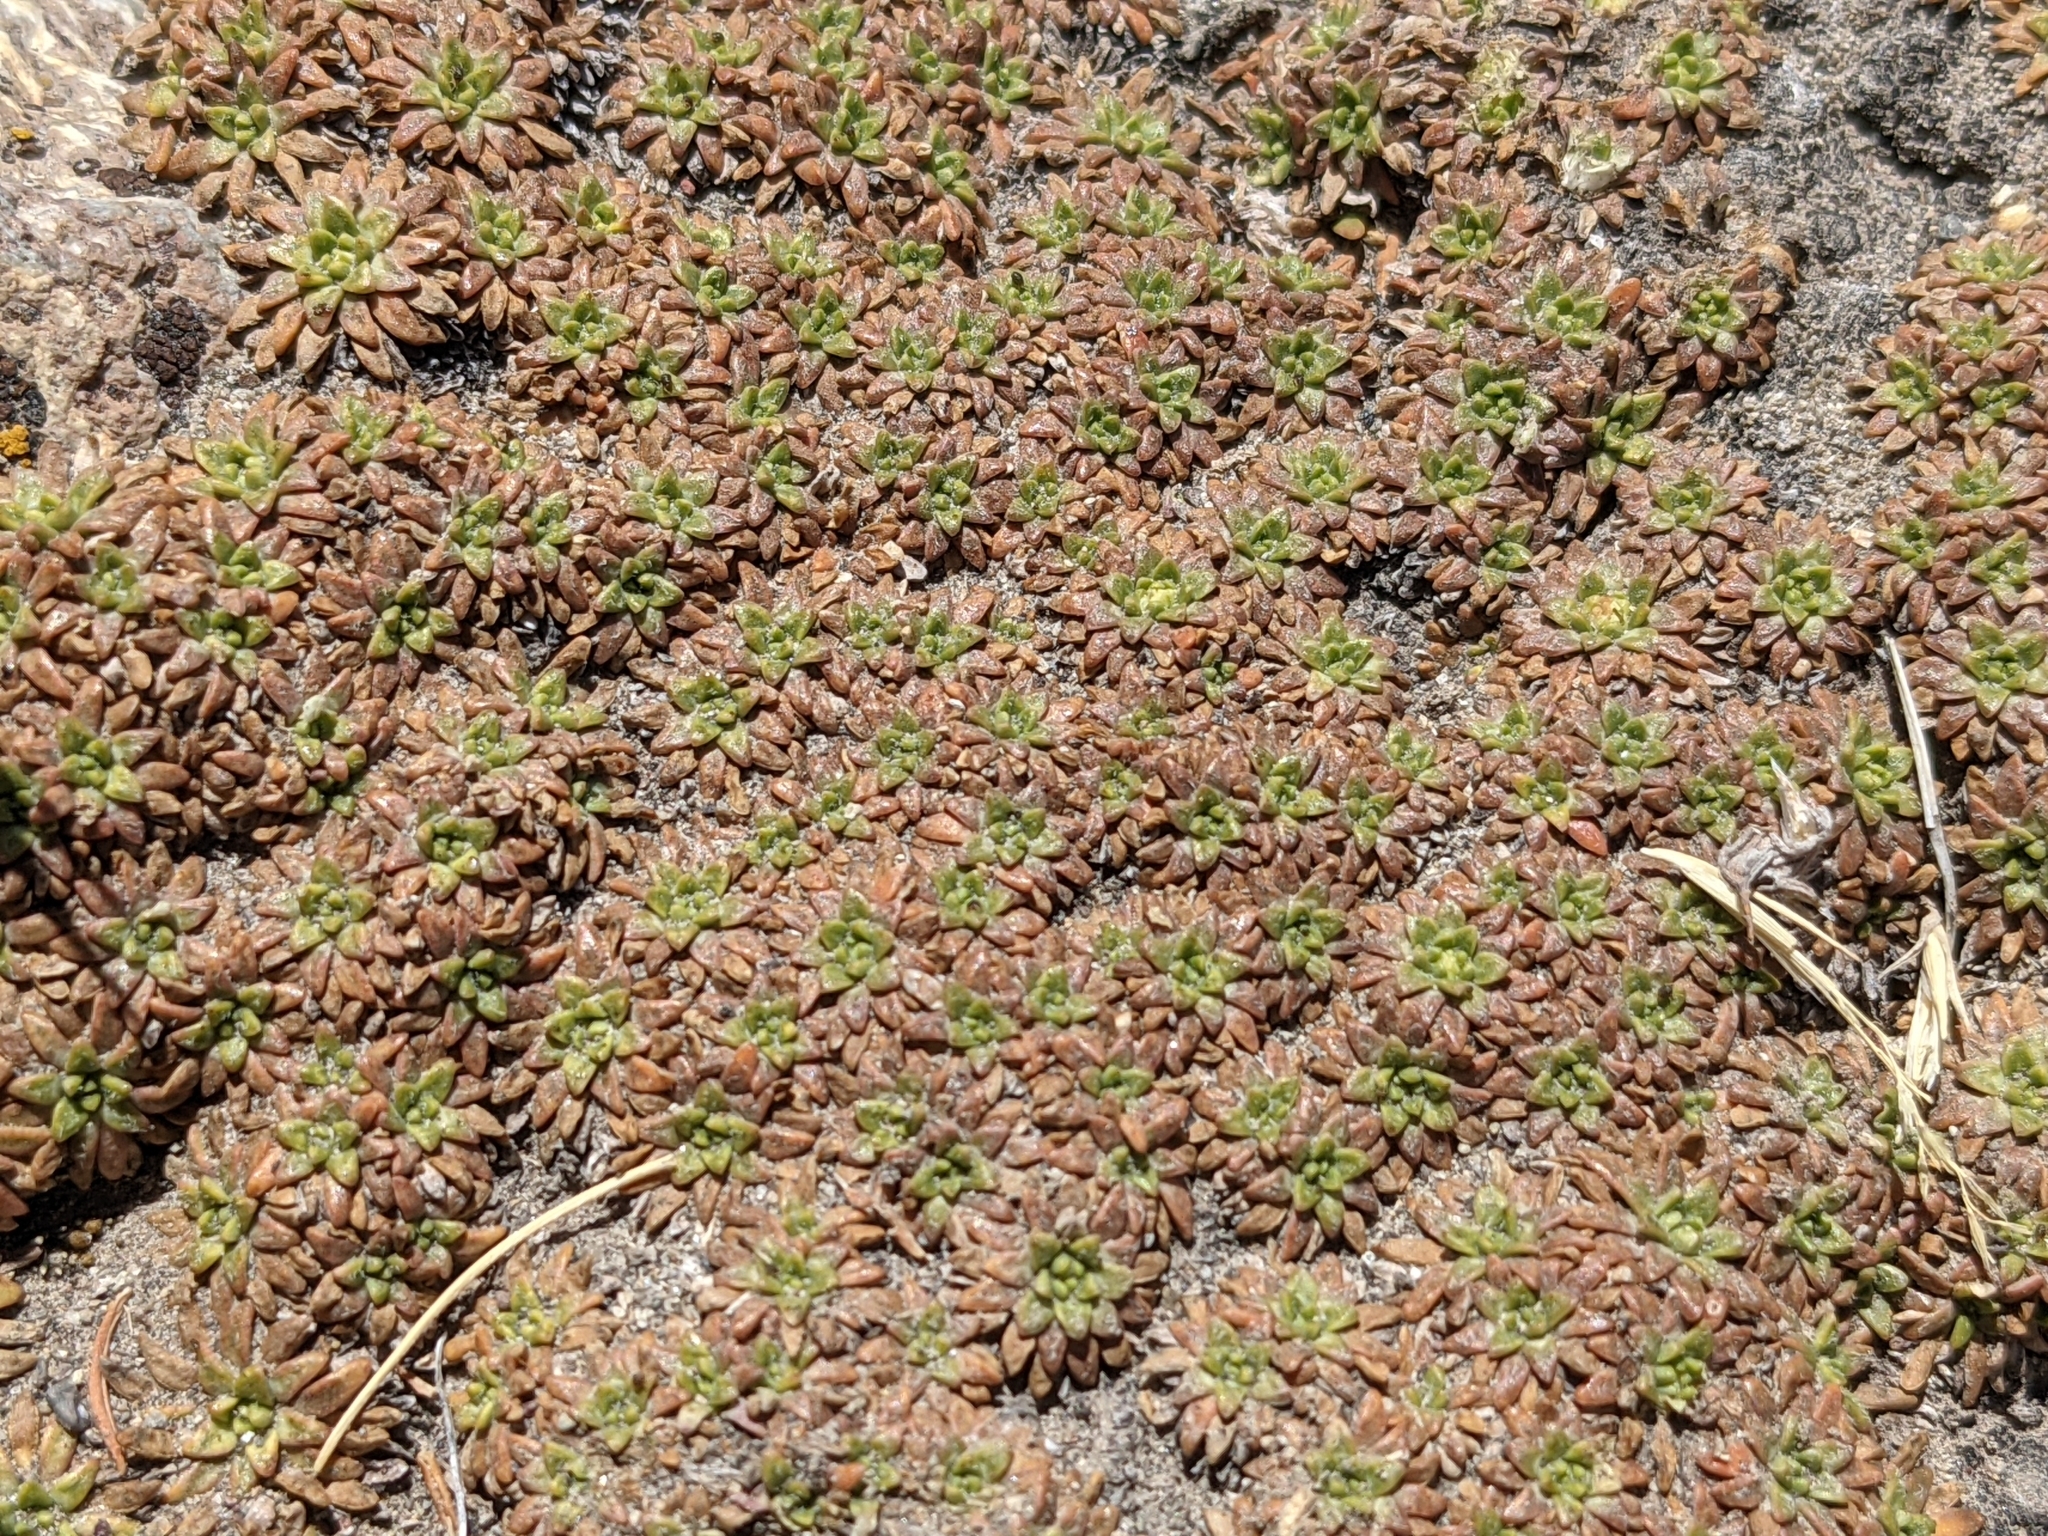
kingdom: Plantae
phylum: Tracheophyta
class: Magnoliopsida
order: Apiales
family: Apiaceae
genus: Azorella
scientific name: Azorella diapensioides
